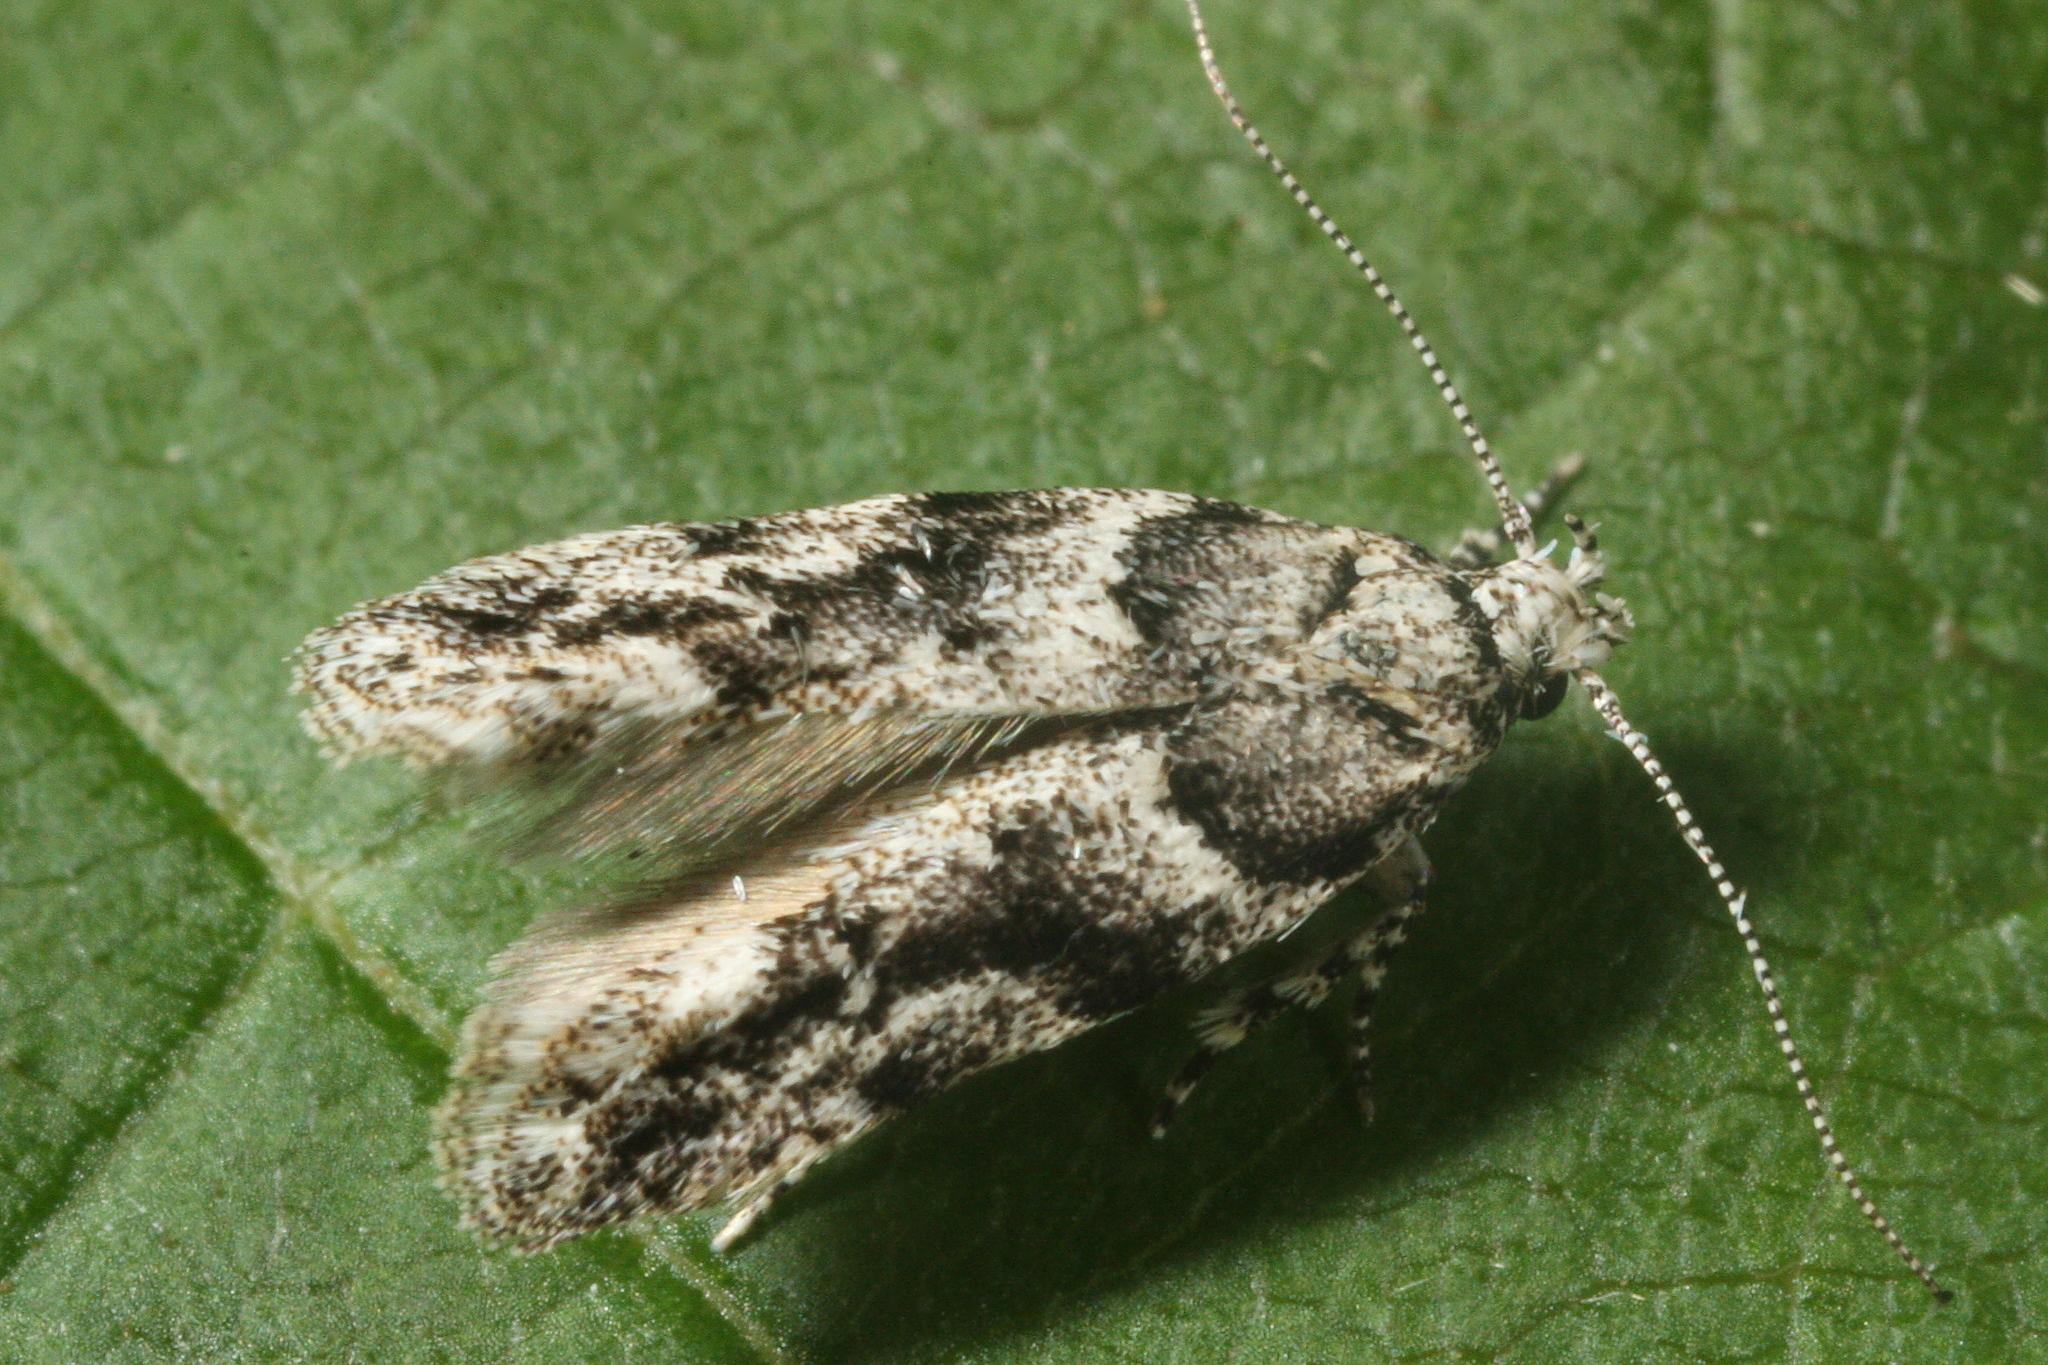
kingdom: Animalia
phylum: Arthropoda
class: Insecta
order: Lepidoptera
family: Gelechiidae
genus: Recurvaria
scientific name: Recurvaria nanella
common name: Gelechiid moth
